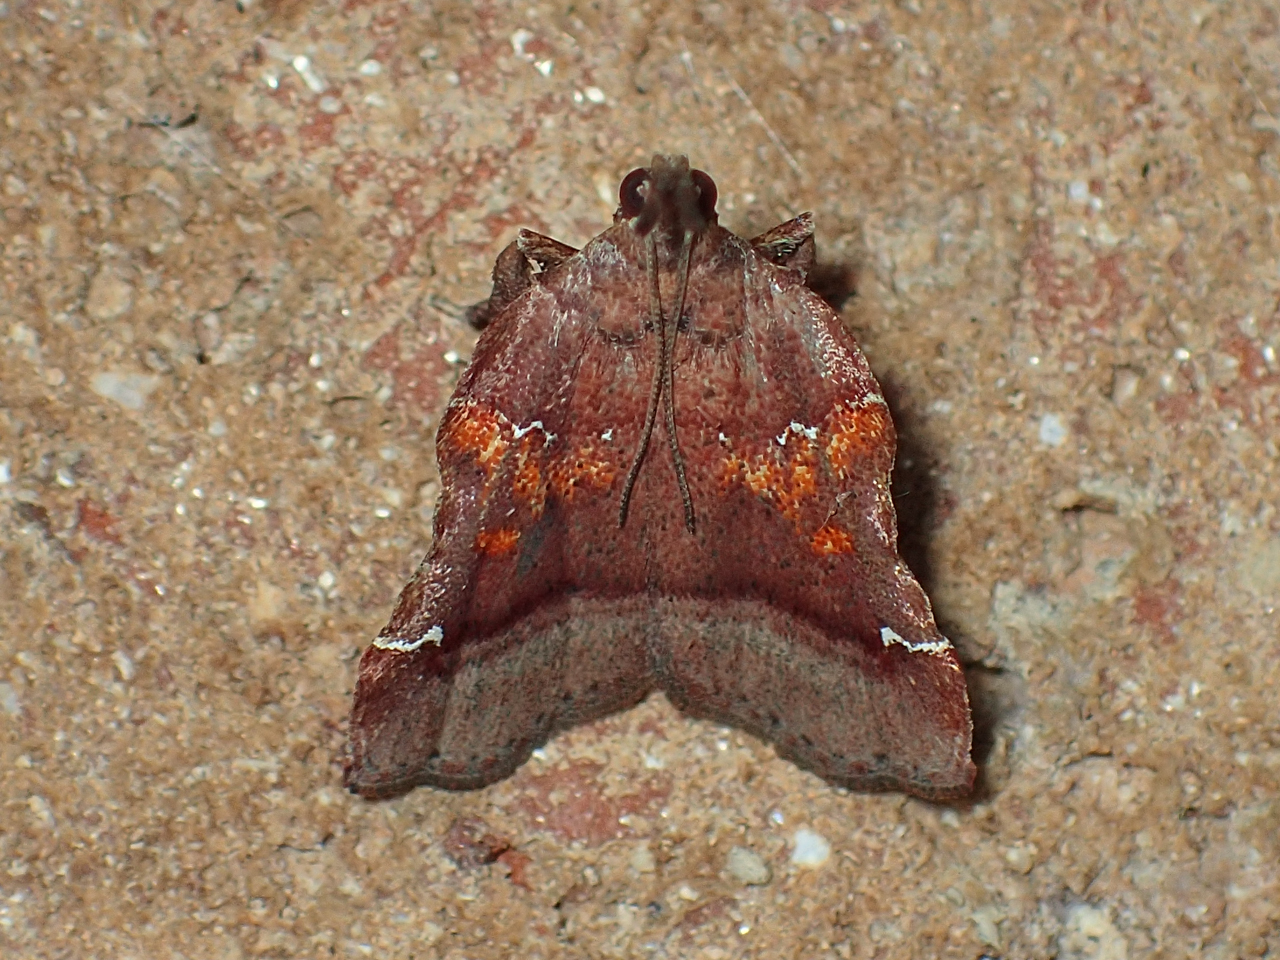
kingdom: Animalia
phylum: Arthropoda
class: Insecta
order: Lepidoptera
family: Pyralidae
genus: Clydonopteron
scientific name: Clydonopteron sacculana
